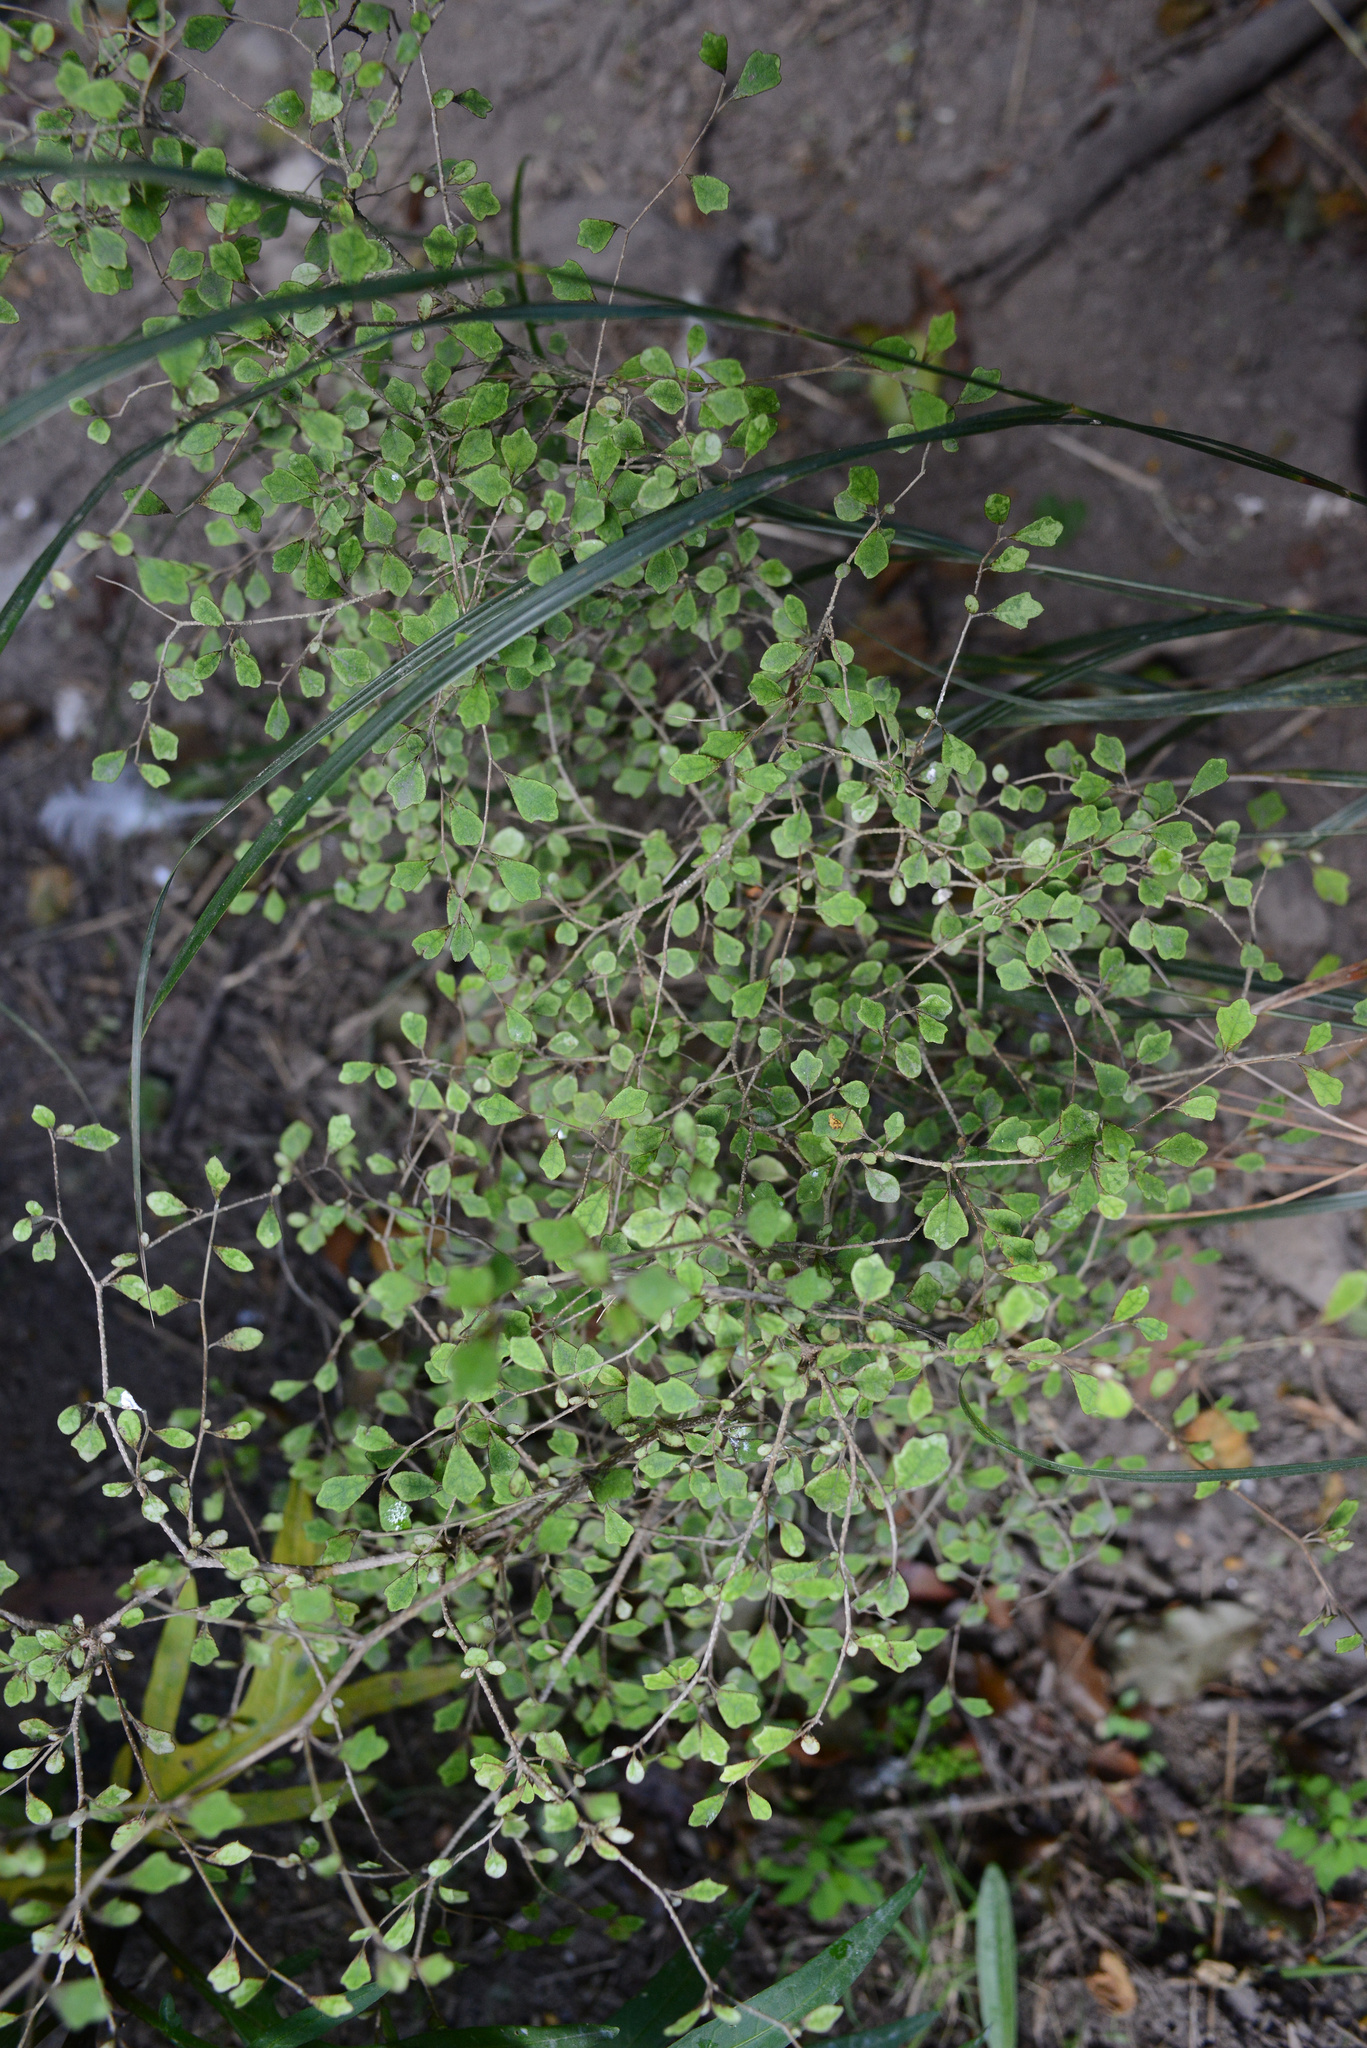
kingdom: Plantae
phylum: Tracheophyta
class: Magnoliopsida
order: Apiales
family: Pennantiaceae
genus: Pennantia
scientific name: Pennantia corymbosa
